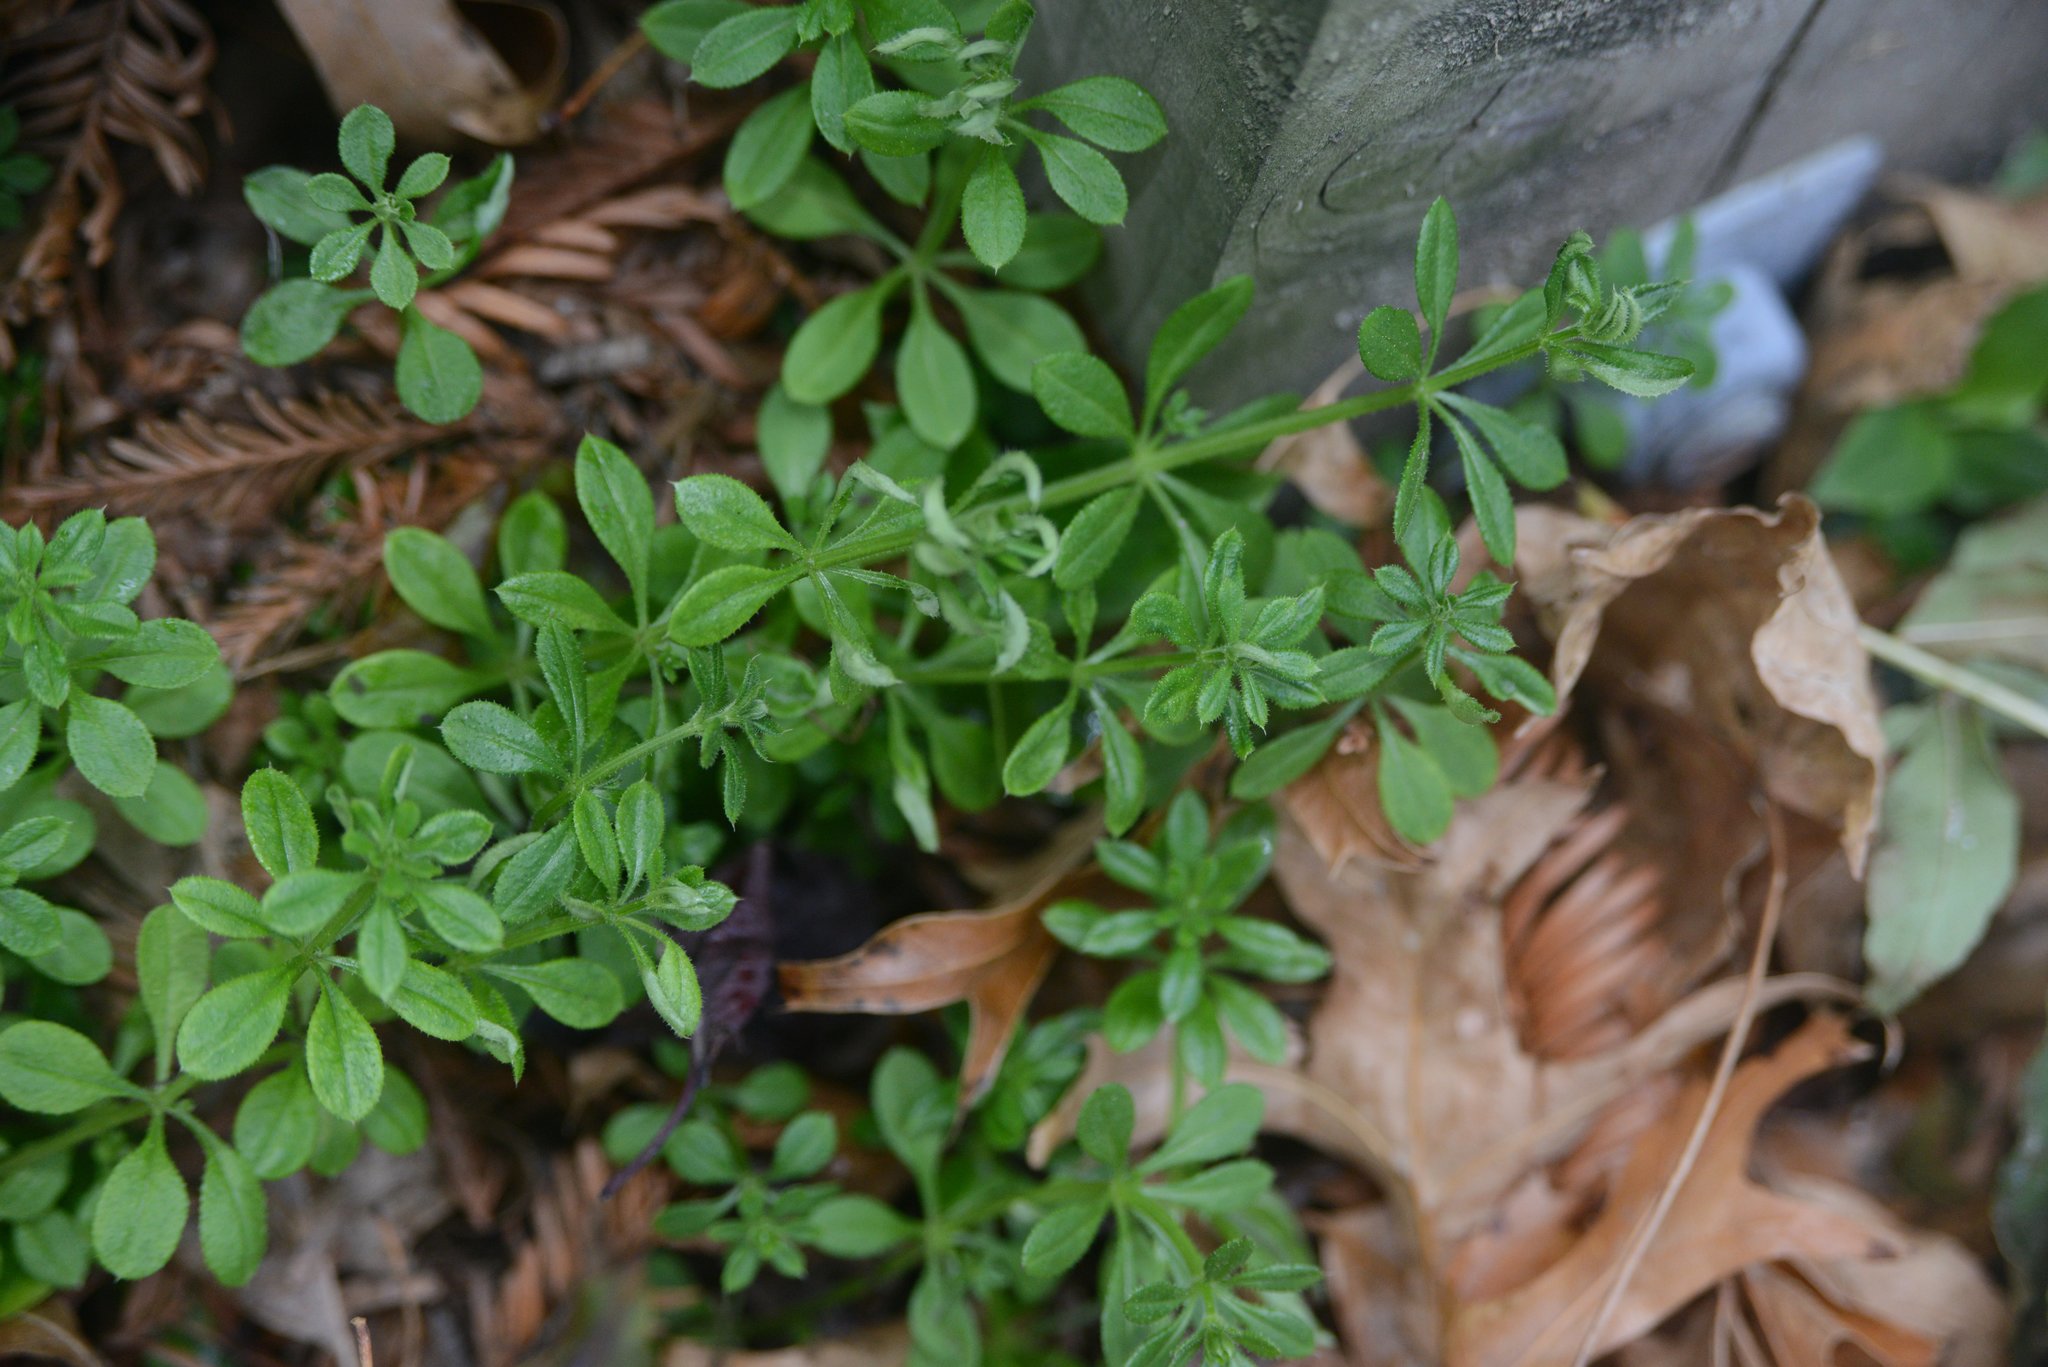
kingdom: Plantae
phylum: Tracheophyta
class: Magnoliopsida
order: Gentianales
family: Rubiaceae
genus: Galium
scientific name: Galium aparine
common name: Cleavers
